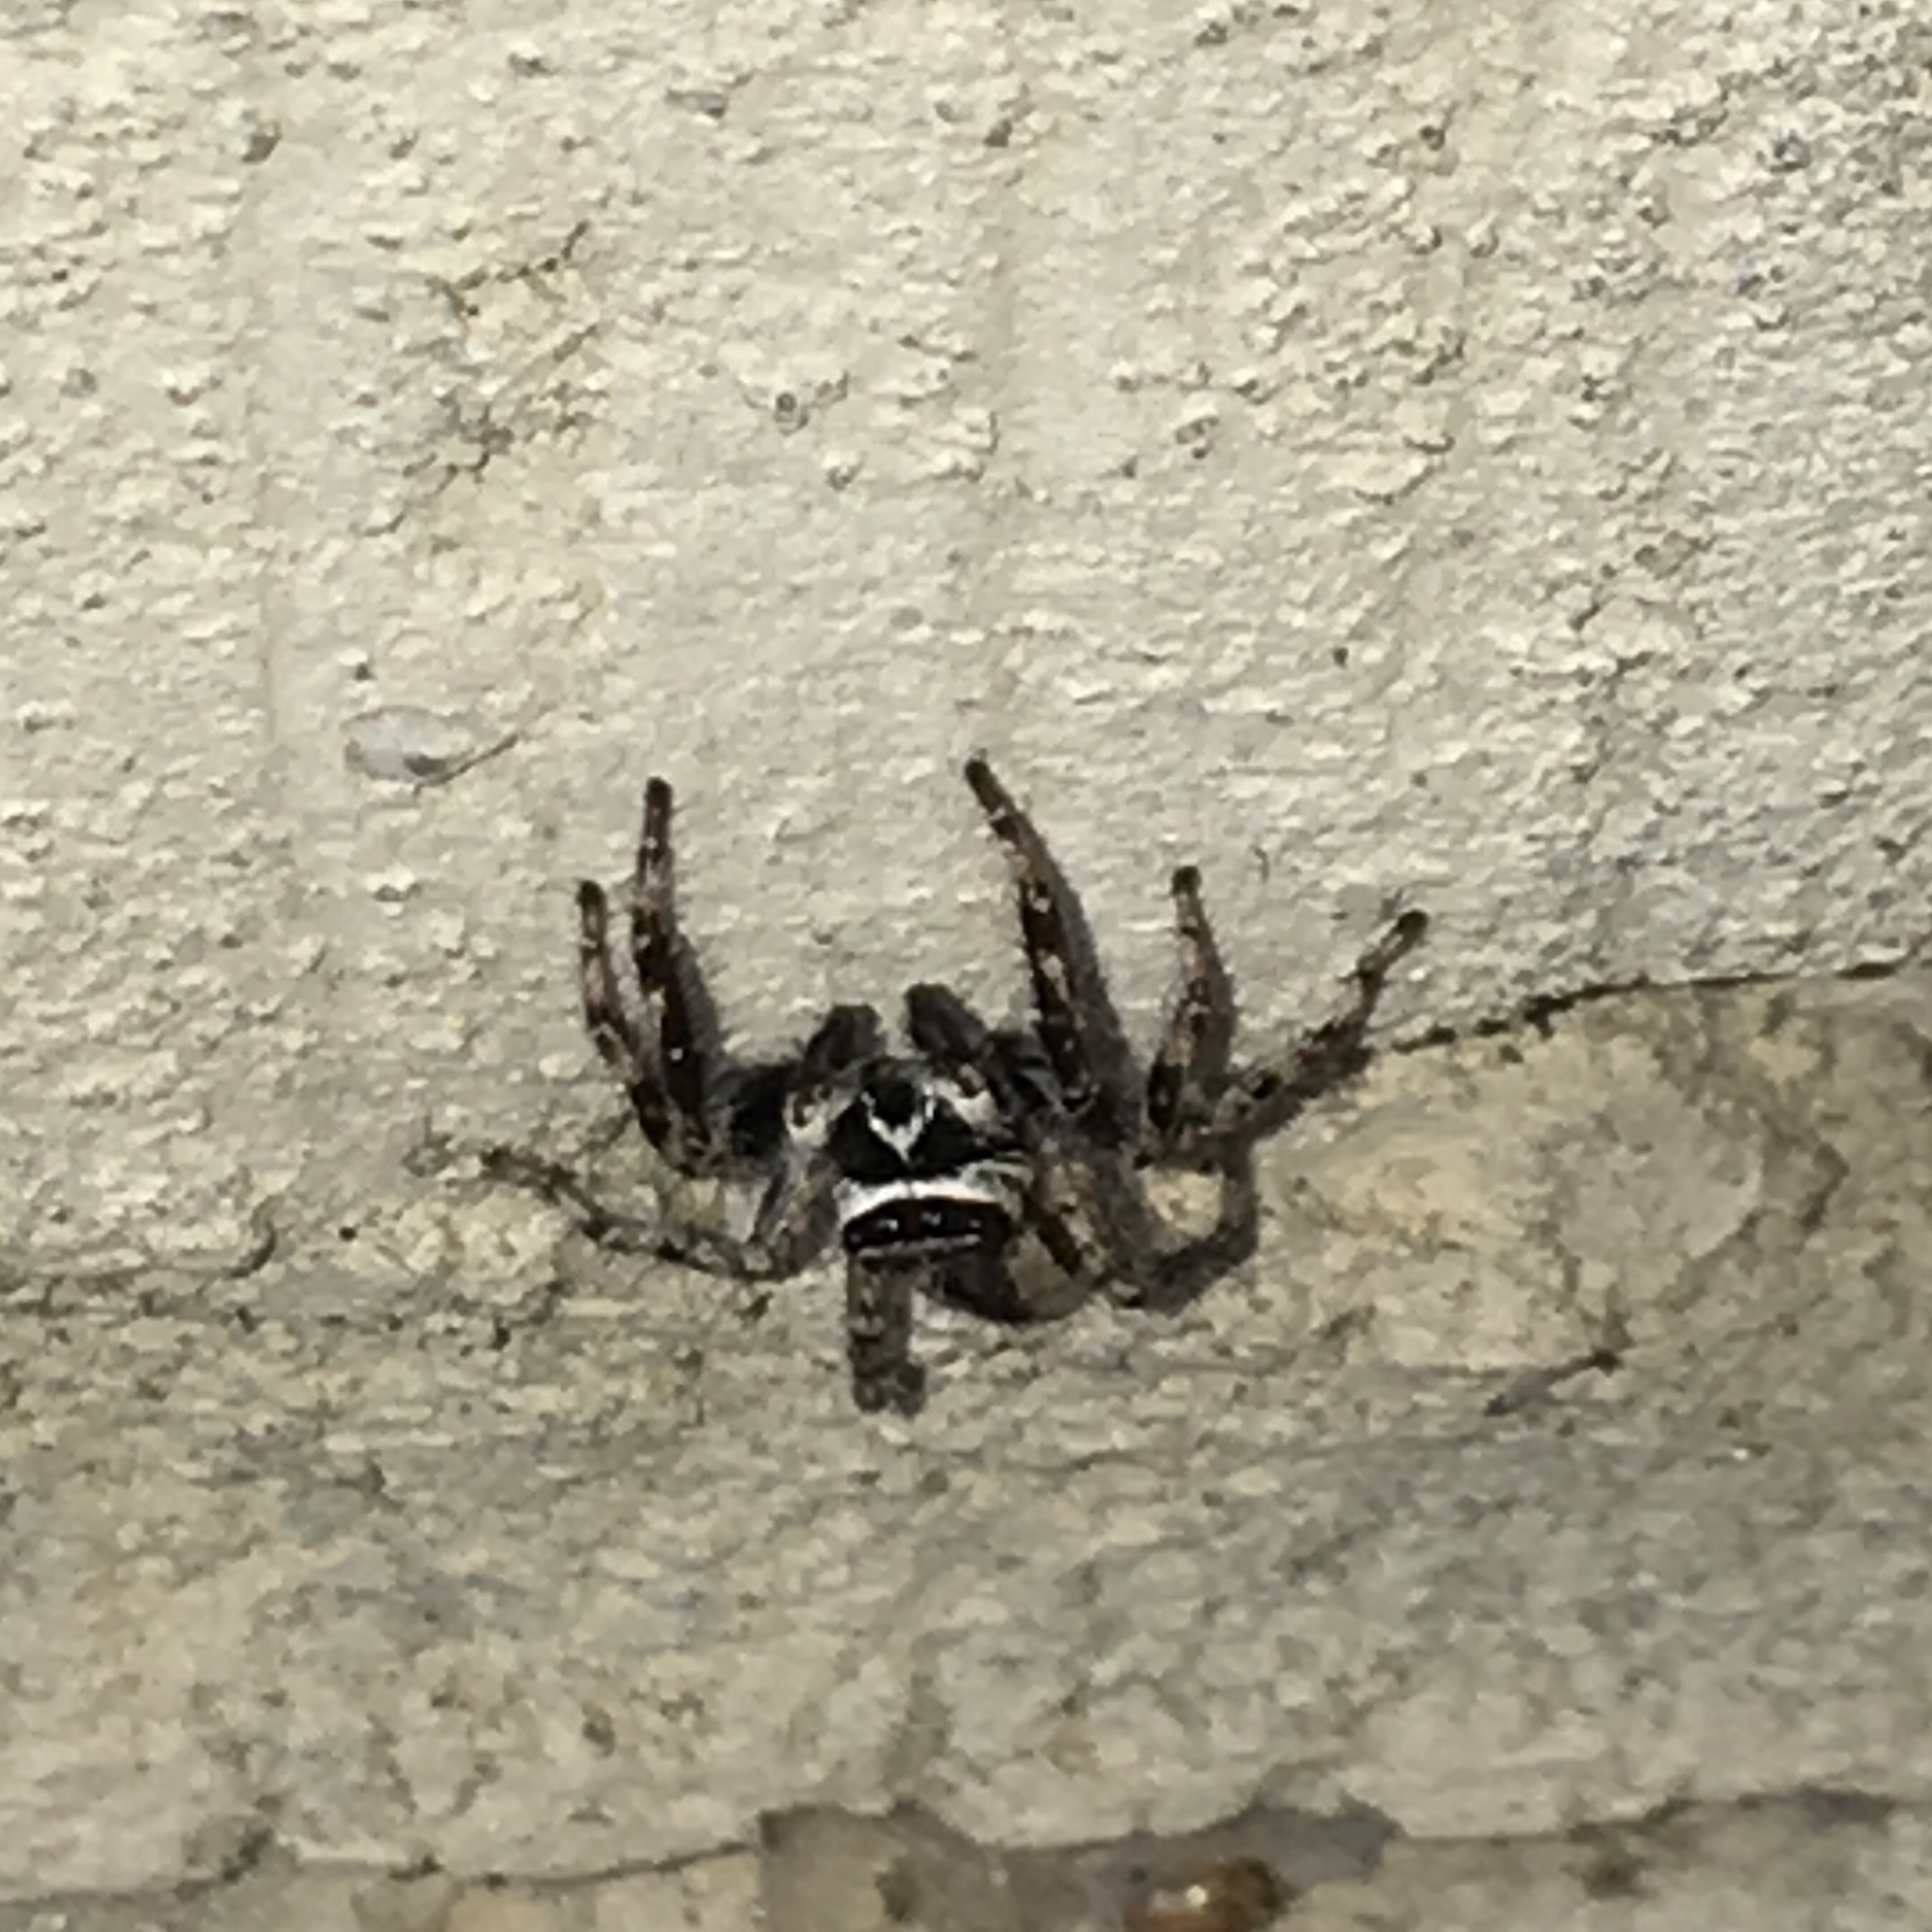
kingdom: Animalia
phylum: Arthropoda
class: Arachnida
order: Araneae
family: Salticidae
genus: Menemerus
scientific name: Menemerus bivittatus
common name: Gray wall jumper
